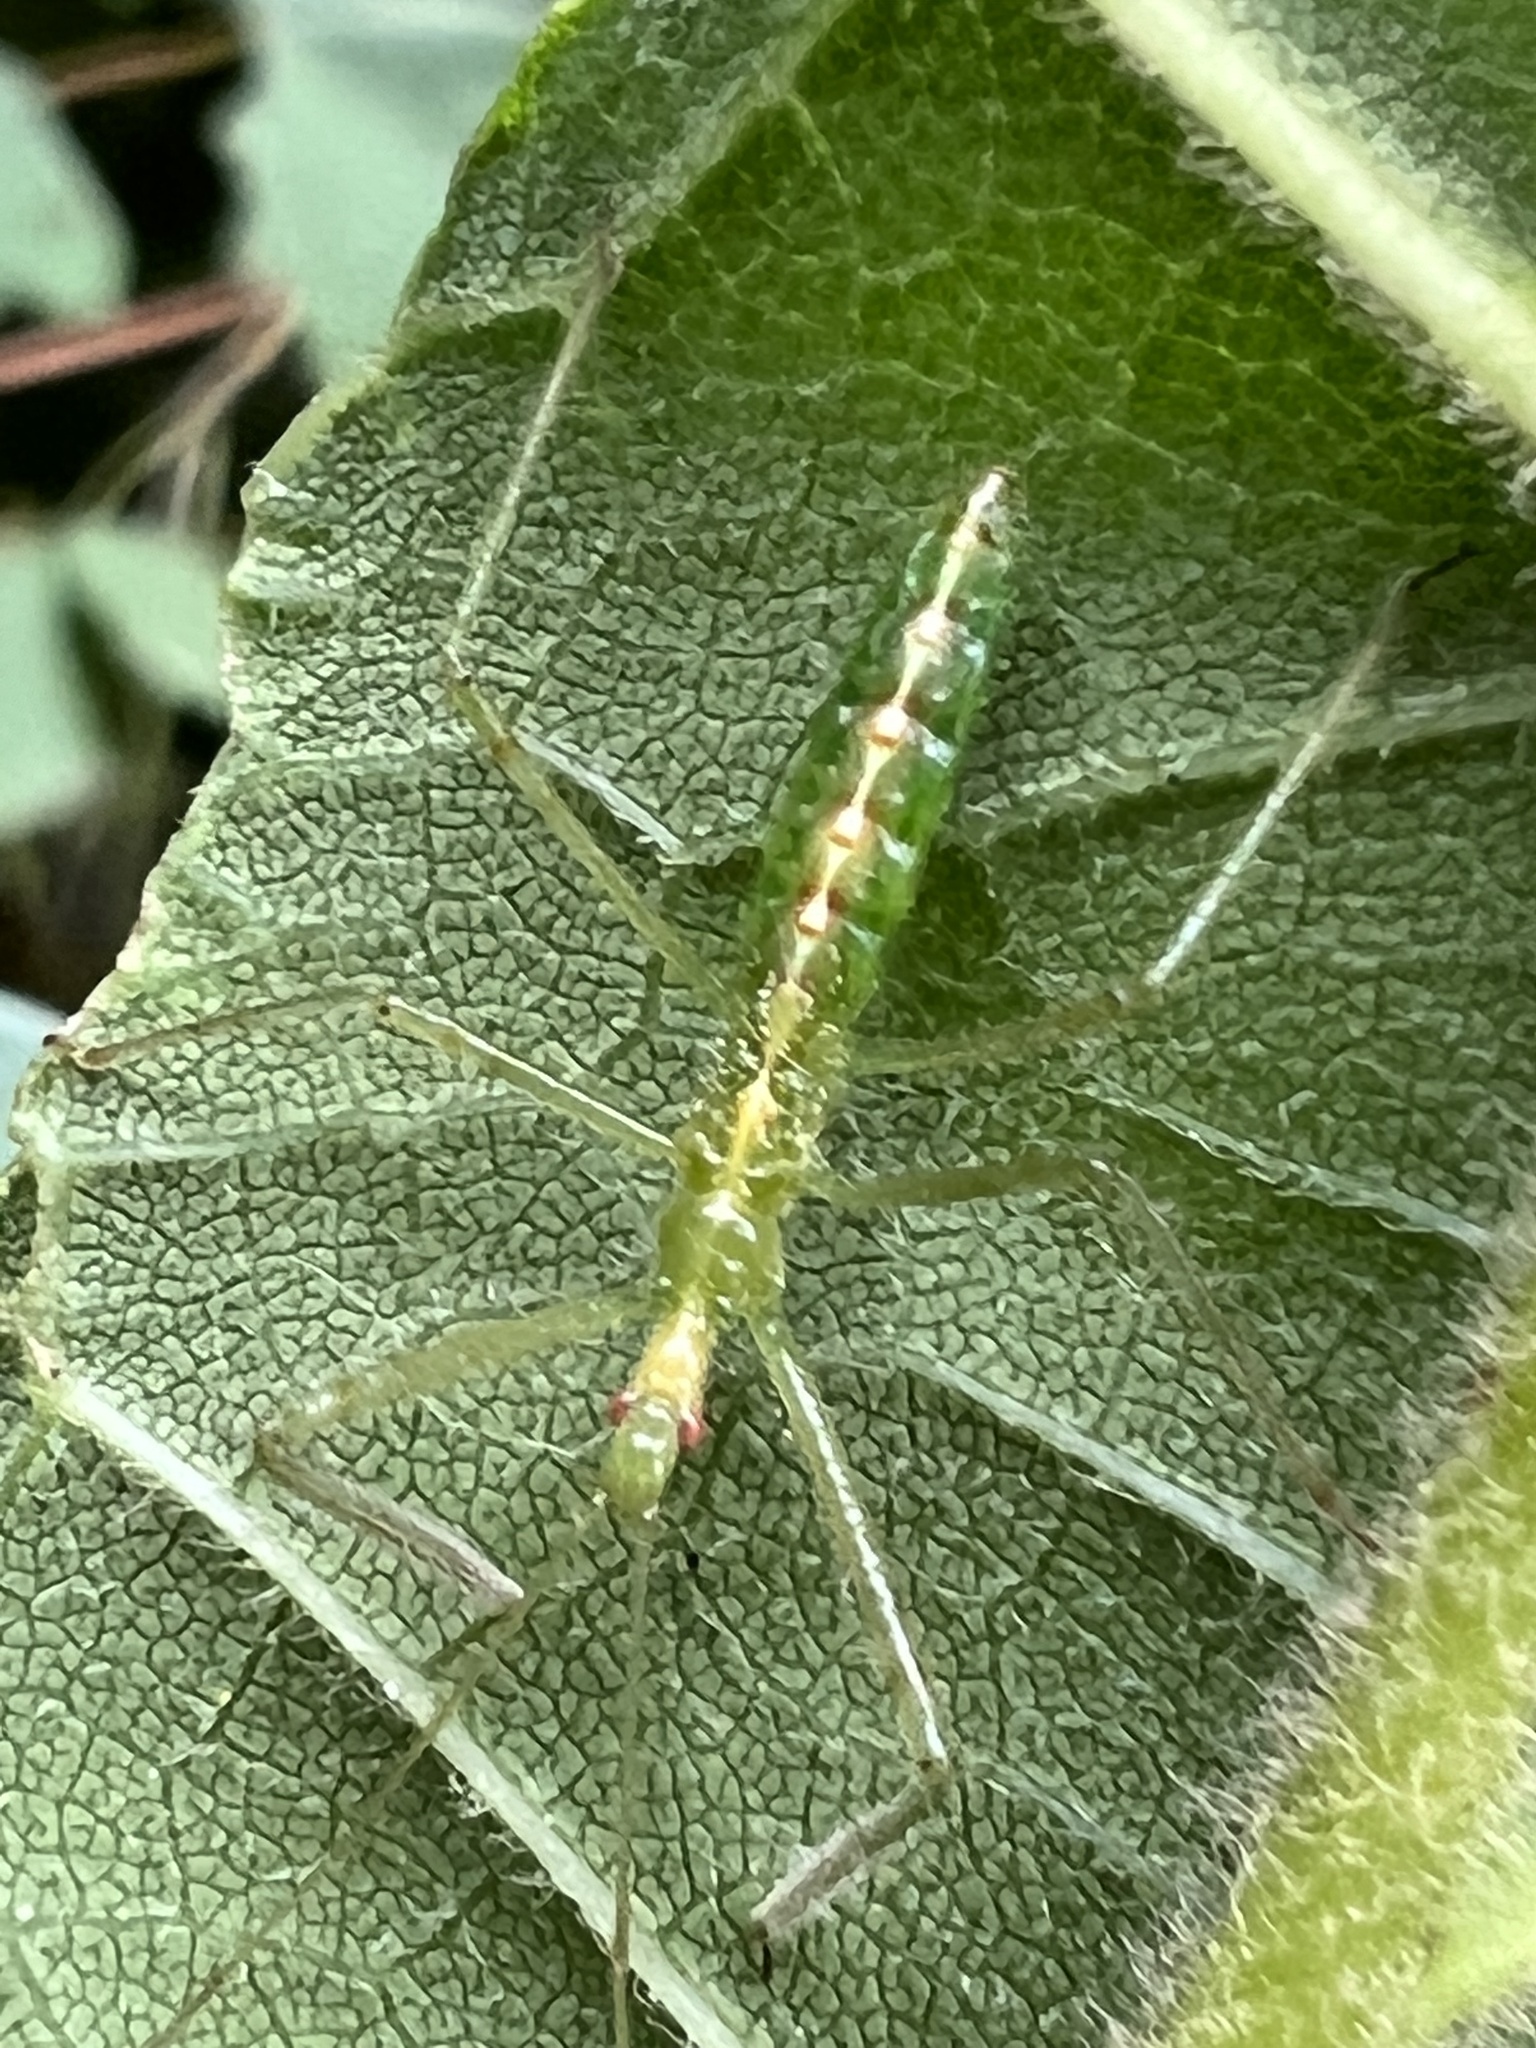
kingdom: Animalia
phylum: Arthropoda
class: Insecta
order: Hemiptera
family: Reduviidae
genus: Zelus
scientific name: Zelus luridus
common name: Pale green assassin bug
